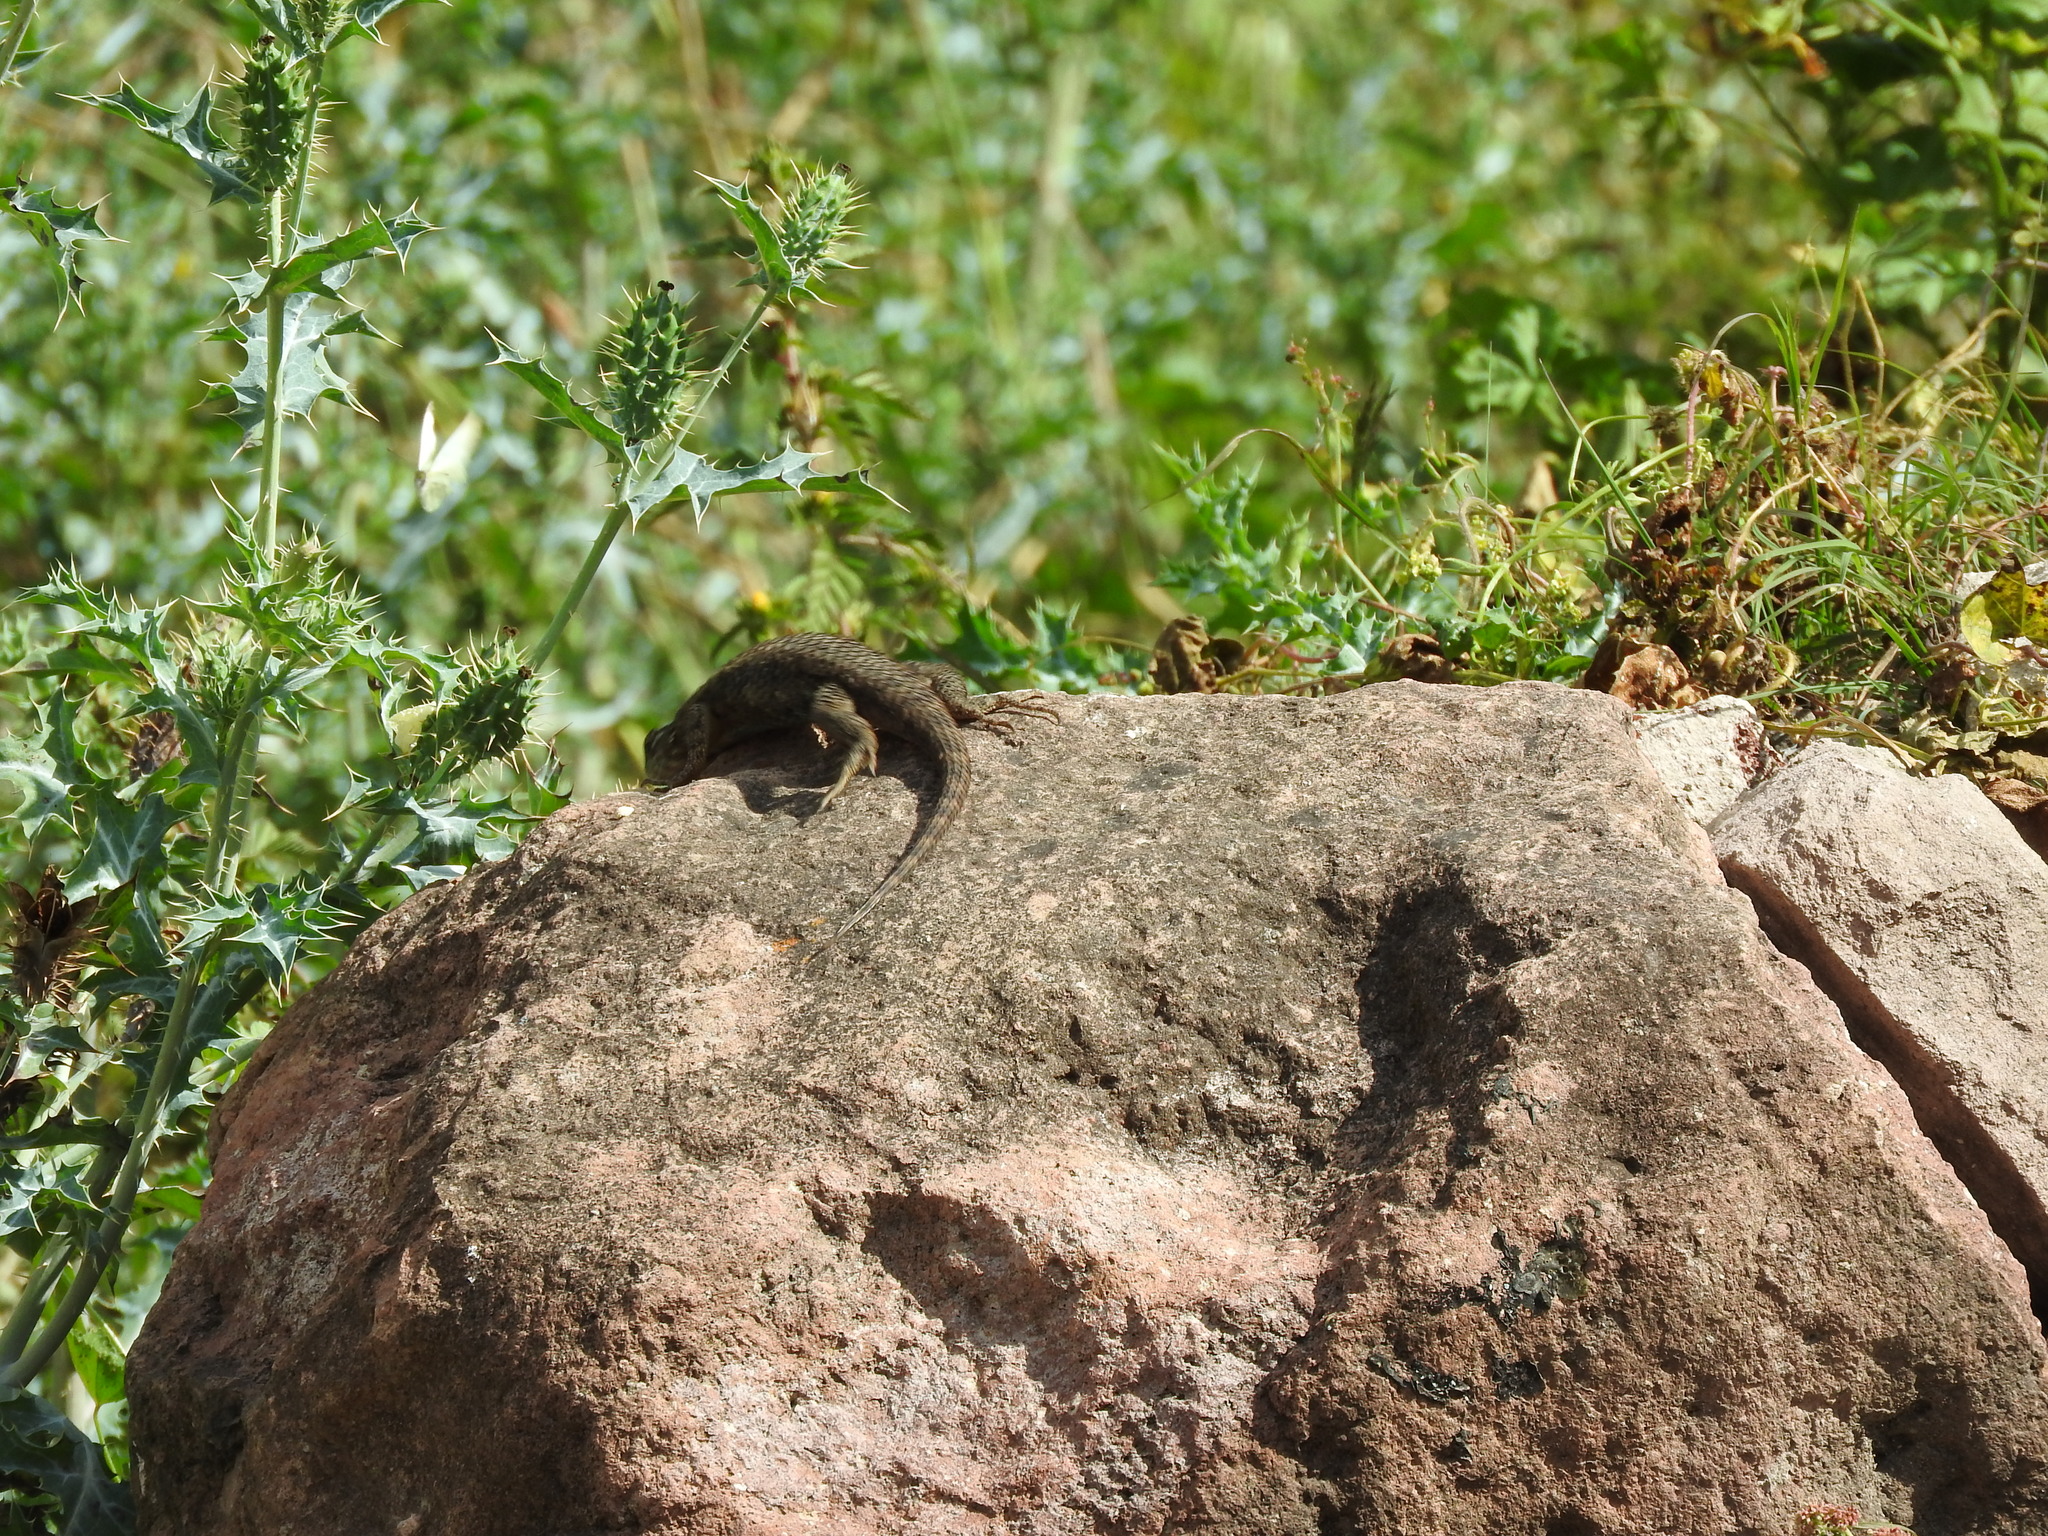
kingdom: Animalia
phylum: Chordata
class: Squamata
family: Phrynosomatidae
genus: Sceloporus
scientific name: Sceloporus spinosus
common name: Blue-spotted spiny lizard [caeruleopunctatus]
